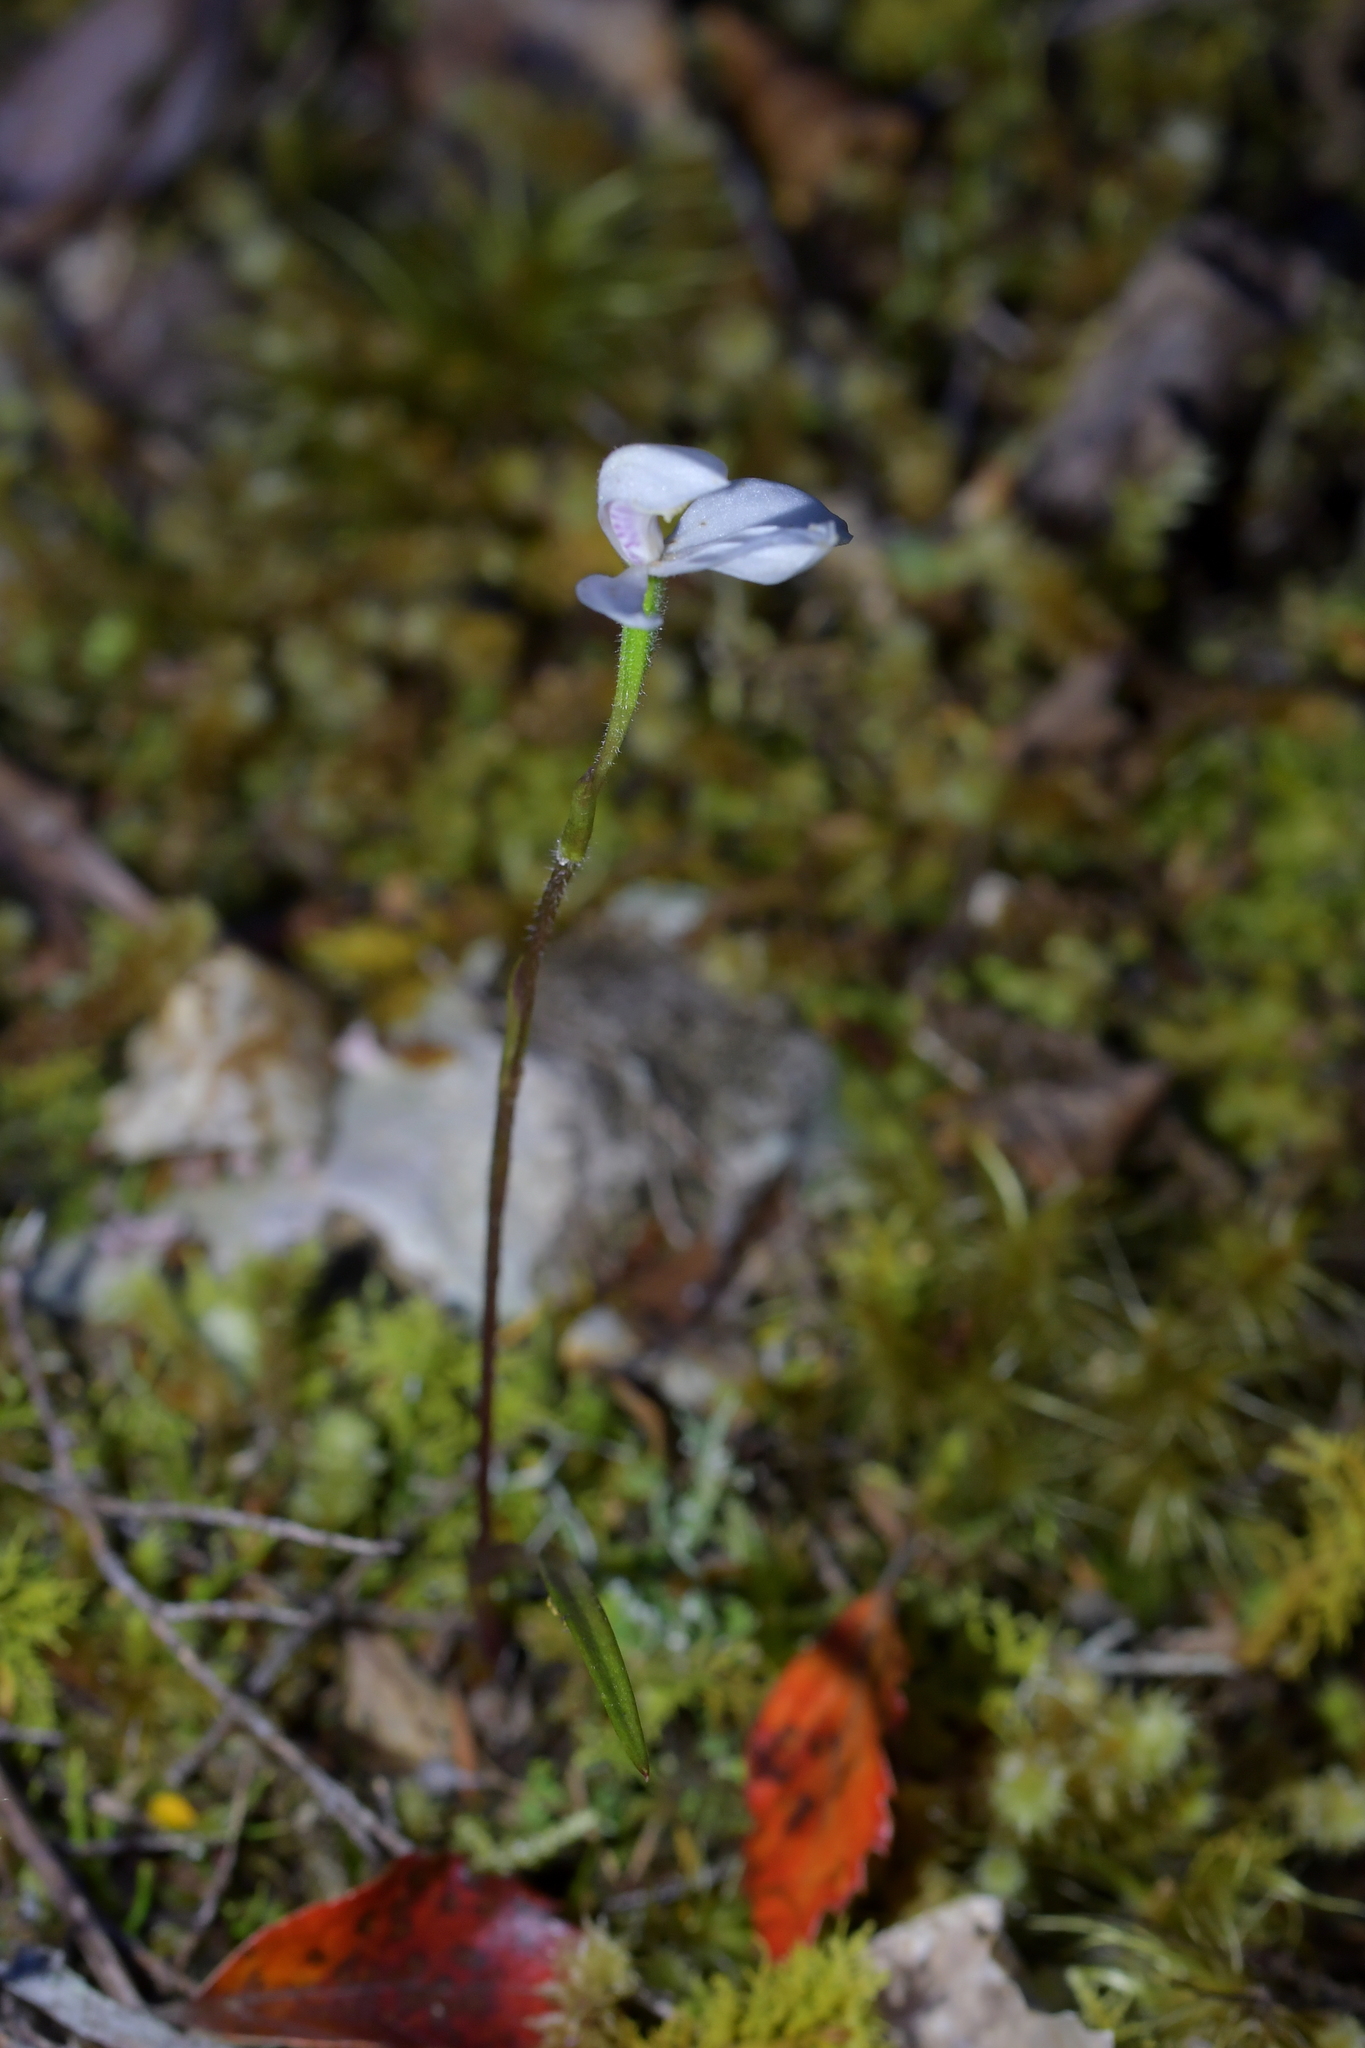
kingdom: Plantae
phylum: Tracheophyta
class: Liliopsida
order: Asparagales
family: Orchidaceae
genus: Caladenia
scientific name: Caladenia lyallii
